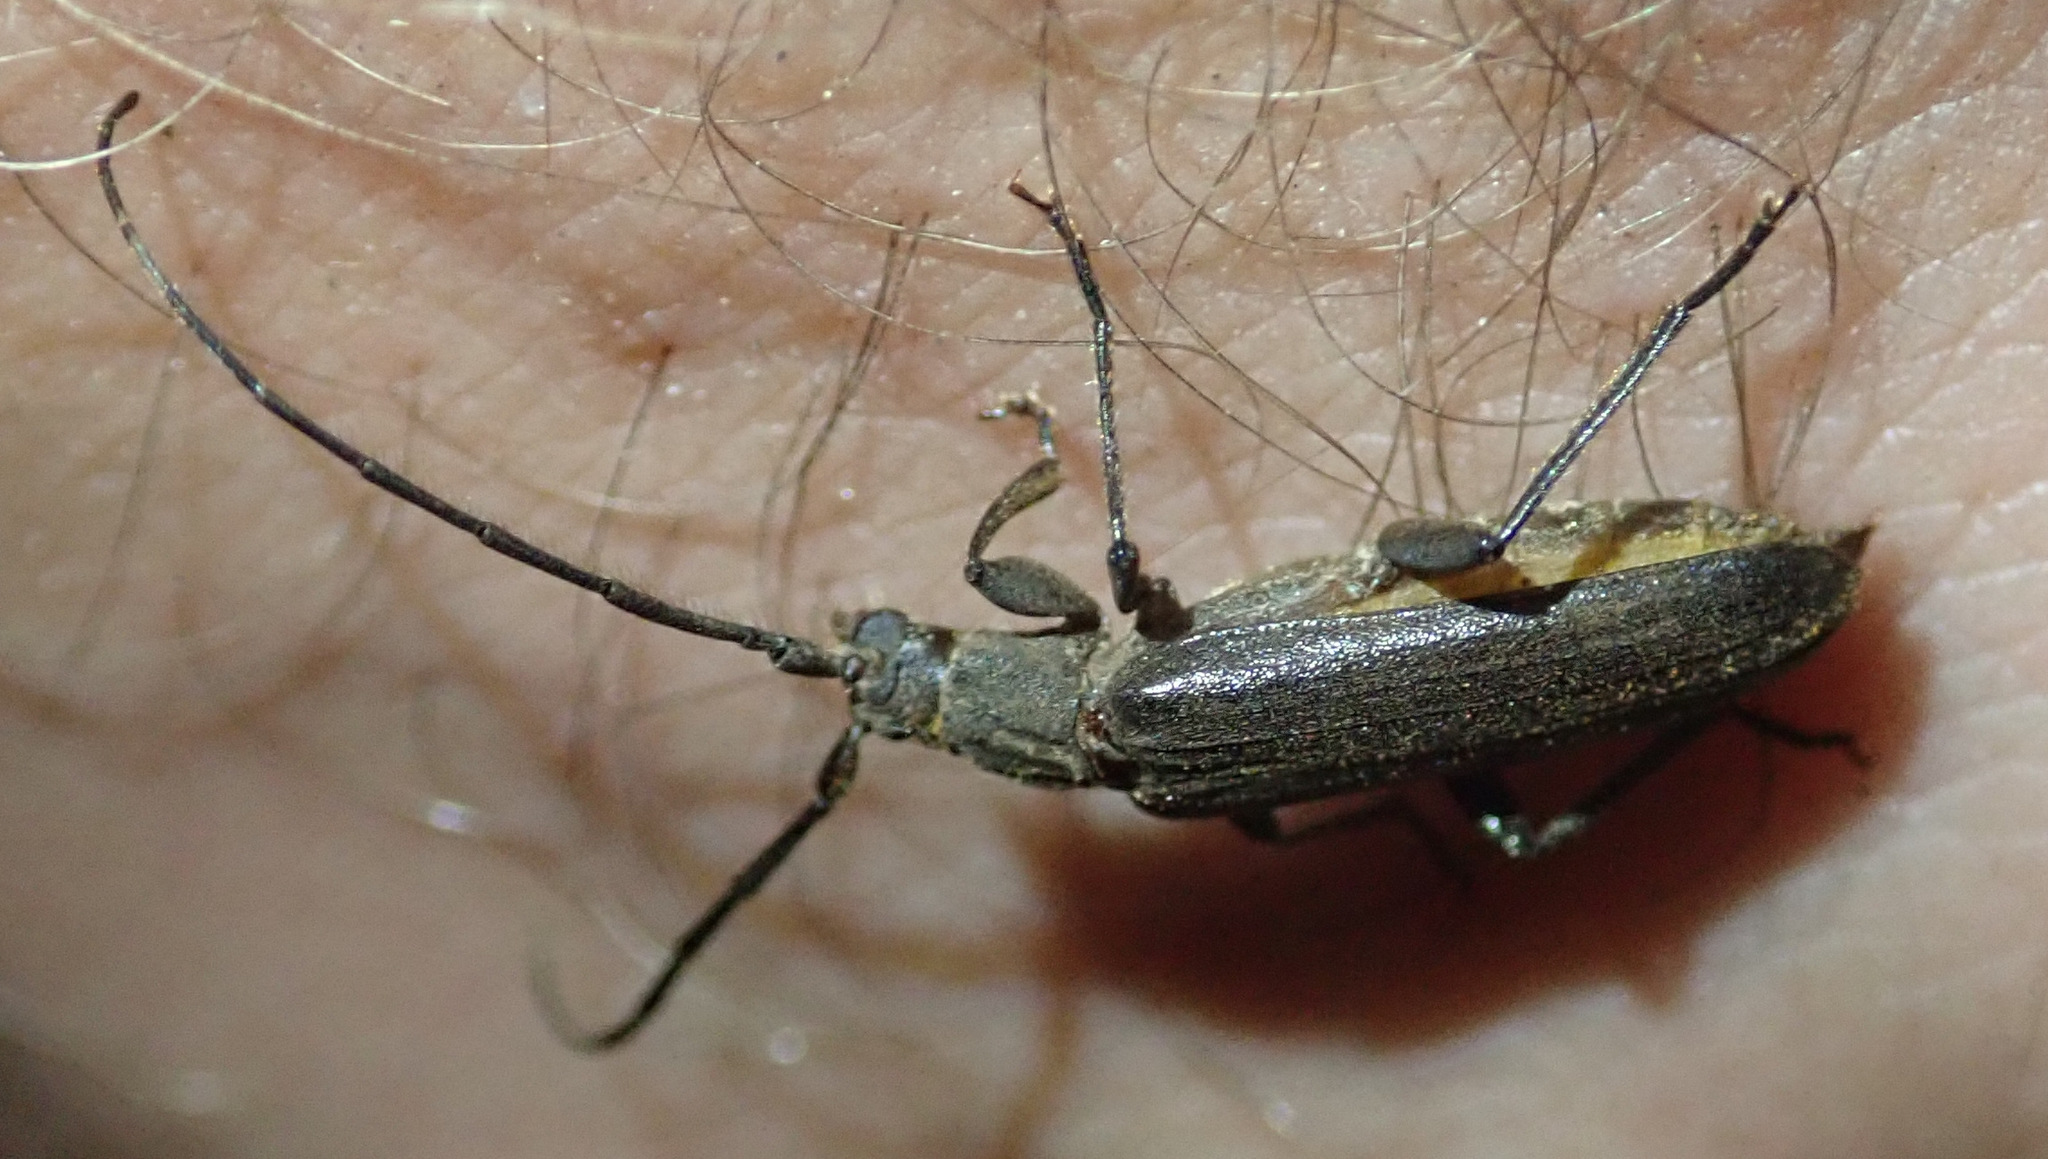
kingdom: Animalia
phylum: Arthropoda
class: Insecta
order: Coleoptera
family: Cerambycidae
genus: Hypoeschrus
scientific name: Hypoeschrus ferreirae
